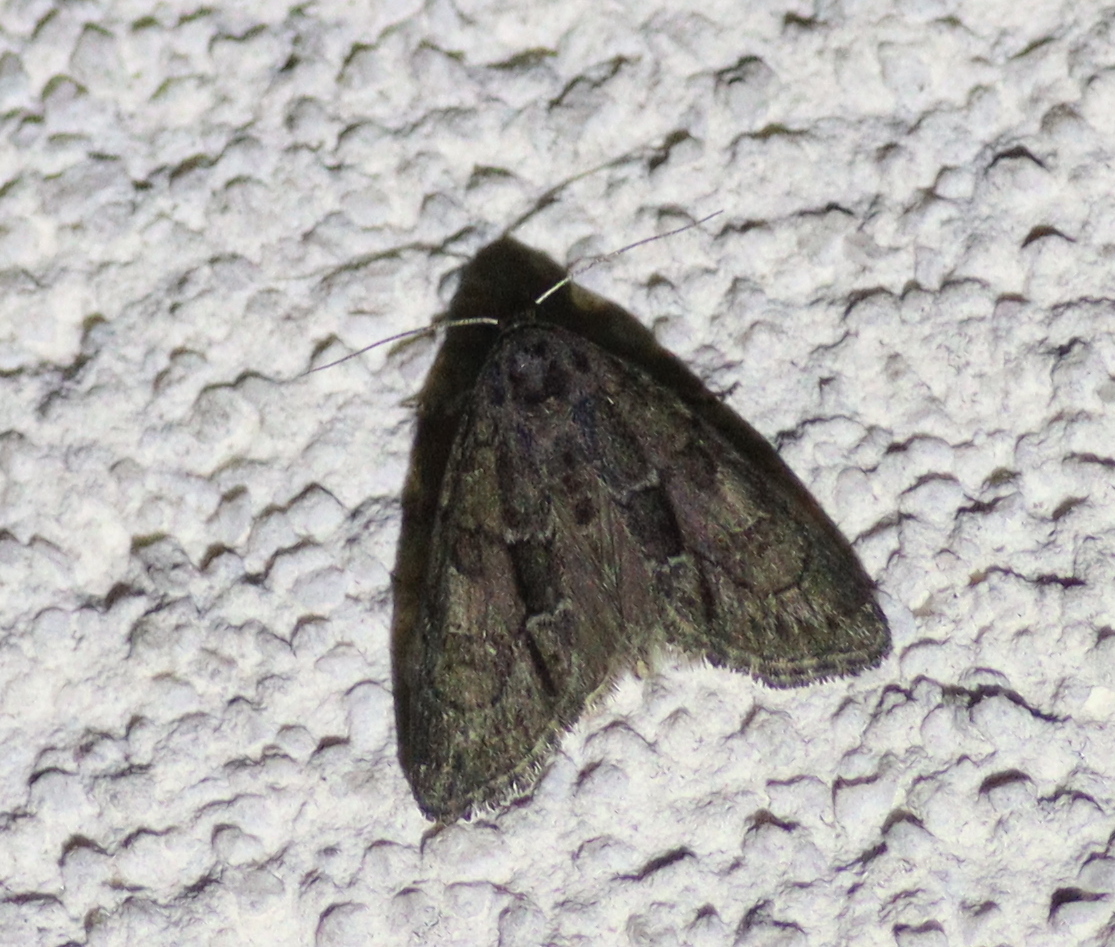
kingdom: Animalia
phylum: Arthropoda
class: Insecta
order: Lepidoptera
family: Noctuidae
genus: Cryphia
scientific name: Cryphia fraudatricula
